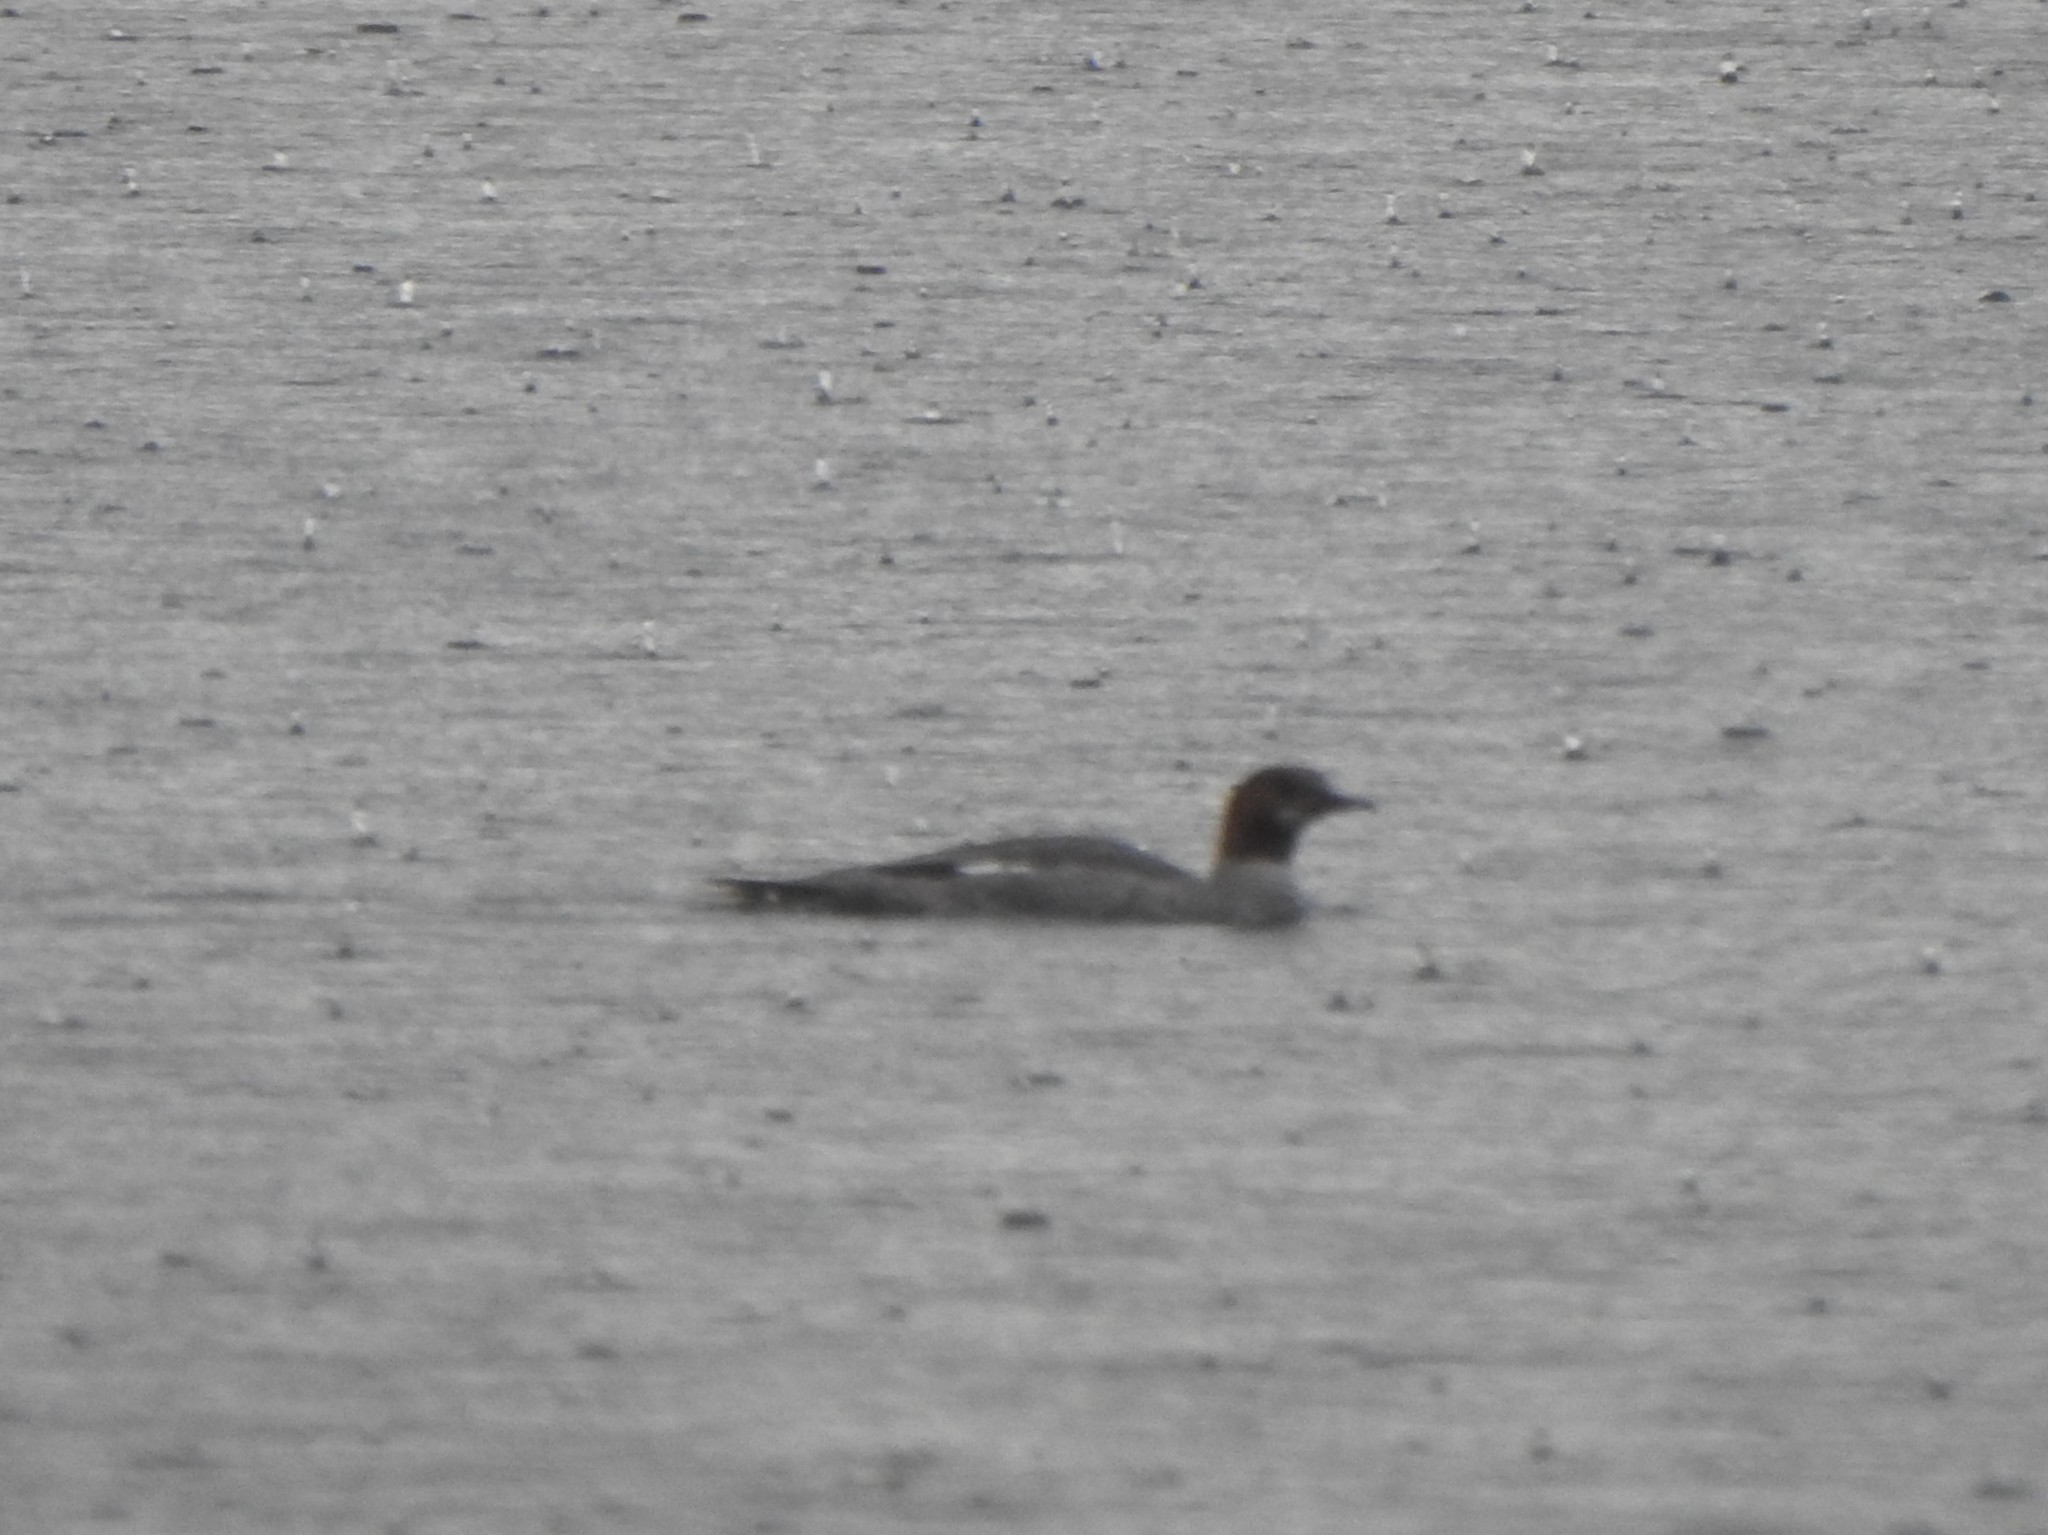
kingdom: Animalia
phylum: Chordata
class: Aves
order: Anseriformes
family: Anatidae
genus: Mergus
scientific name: Mergus merganser
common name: Common merganser
